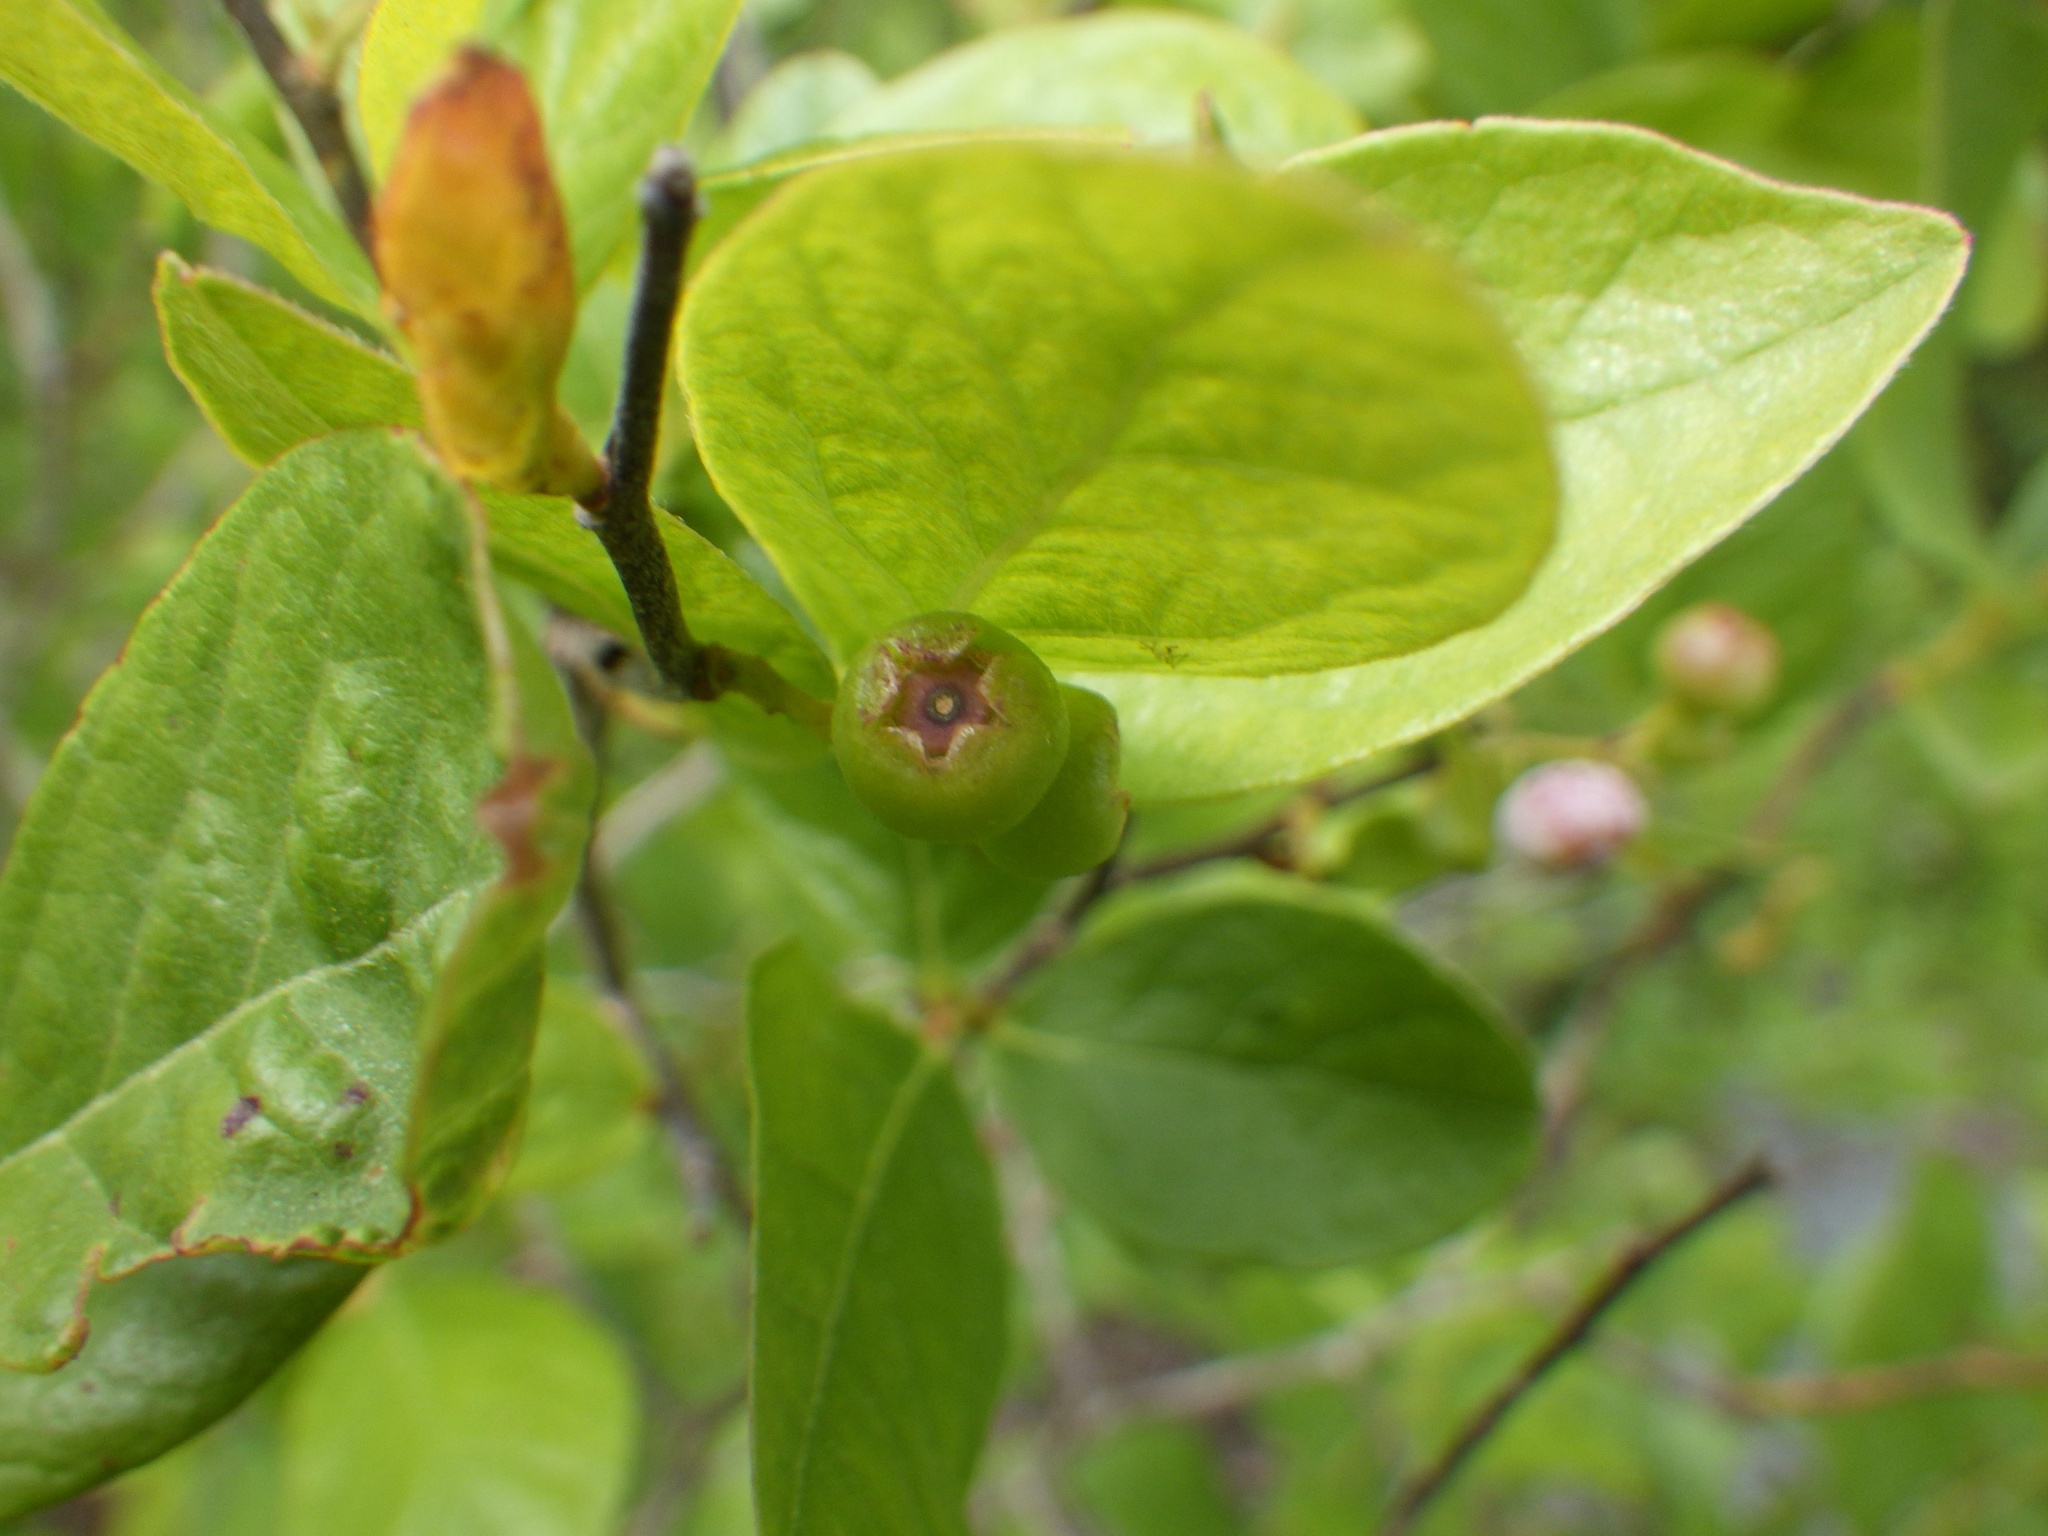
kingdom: Plantae
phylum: Tracheophyta
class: Magnoliopsida
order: Ericales
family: Ericaceae
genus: Gaylussacia
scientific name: Gaylussacia baccata
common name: Black huckleberry
